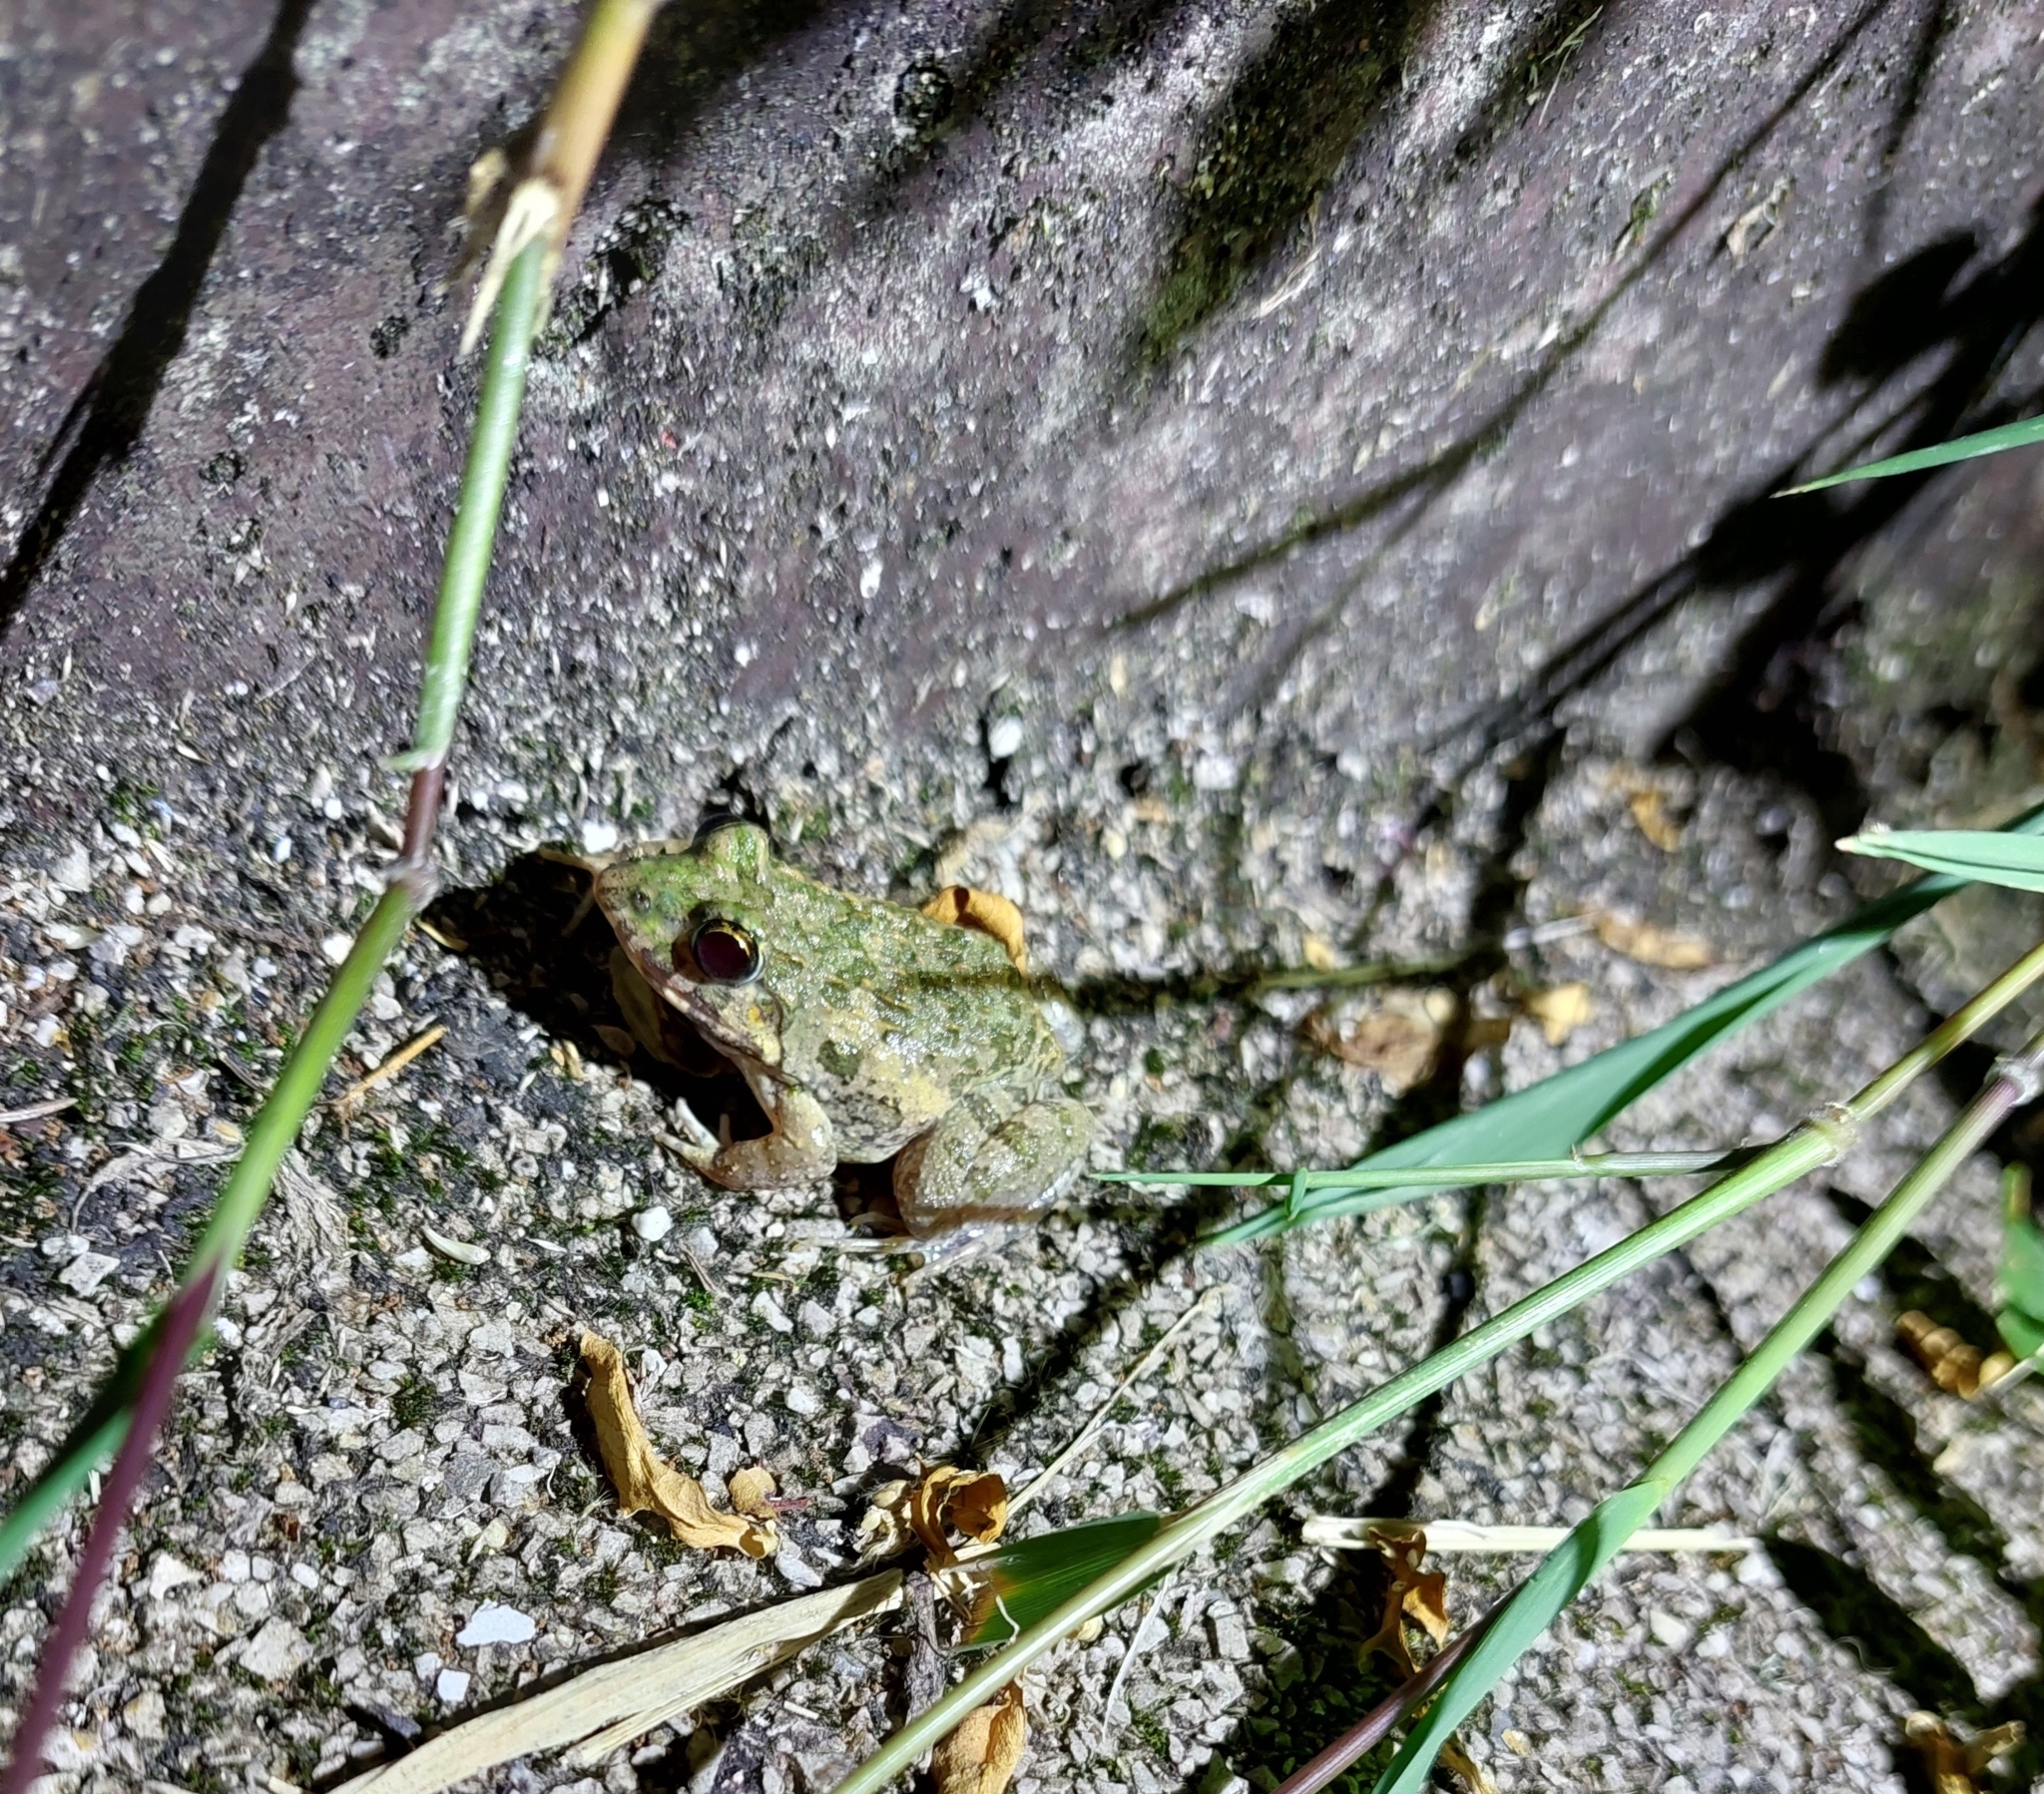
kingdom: Animalia
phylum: Chordata
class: Amphibia
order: Anura
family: Dicroglossidae
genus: Fejervarya
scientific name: Fejervarya limnocharis
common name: Asian grass frog/common pond frog/field frog/grass frog/indian rice frog
